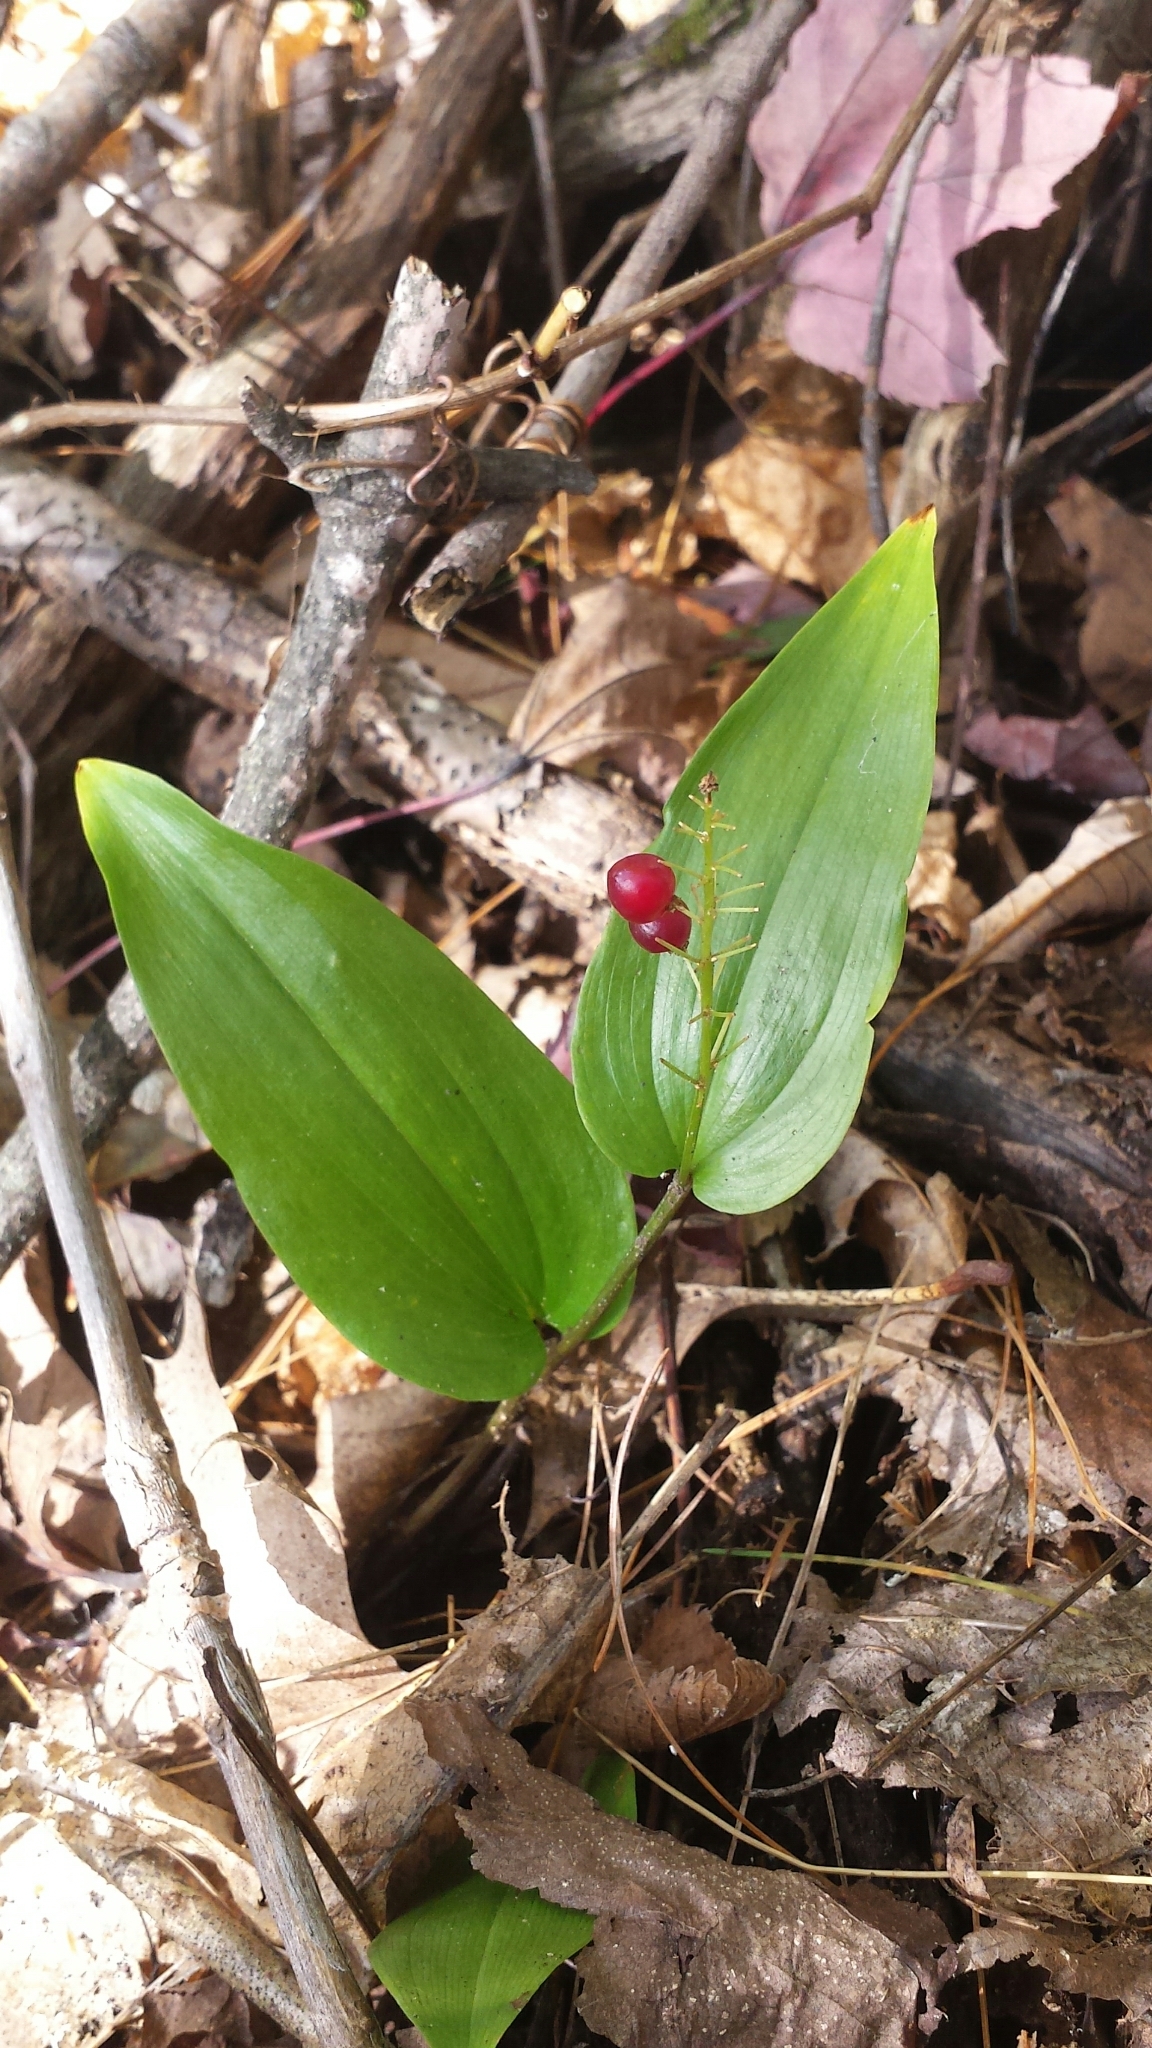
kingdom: Plantae
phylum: Tracheophyta
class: Liliopsida
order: Asparagales
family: Asparagaceae
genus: Maianthemum
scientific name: Maianthemum canadense
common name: False lily-of-the-valley
